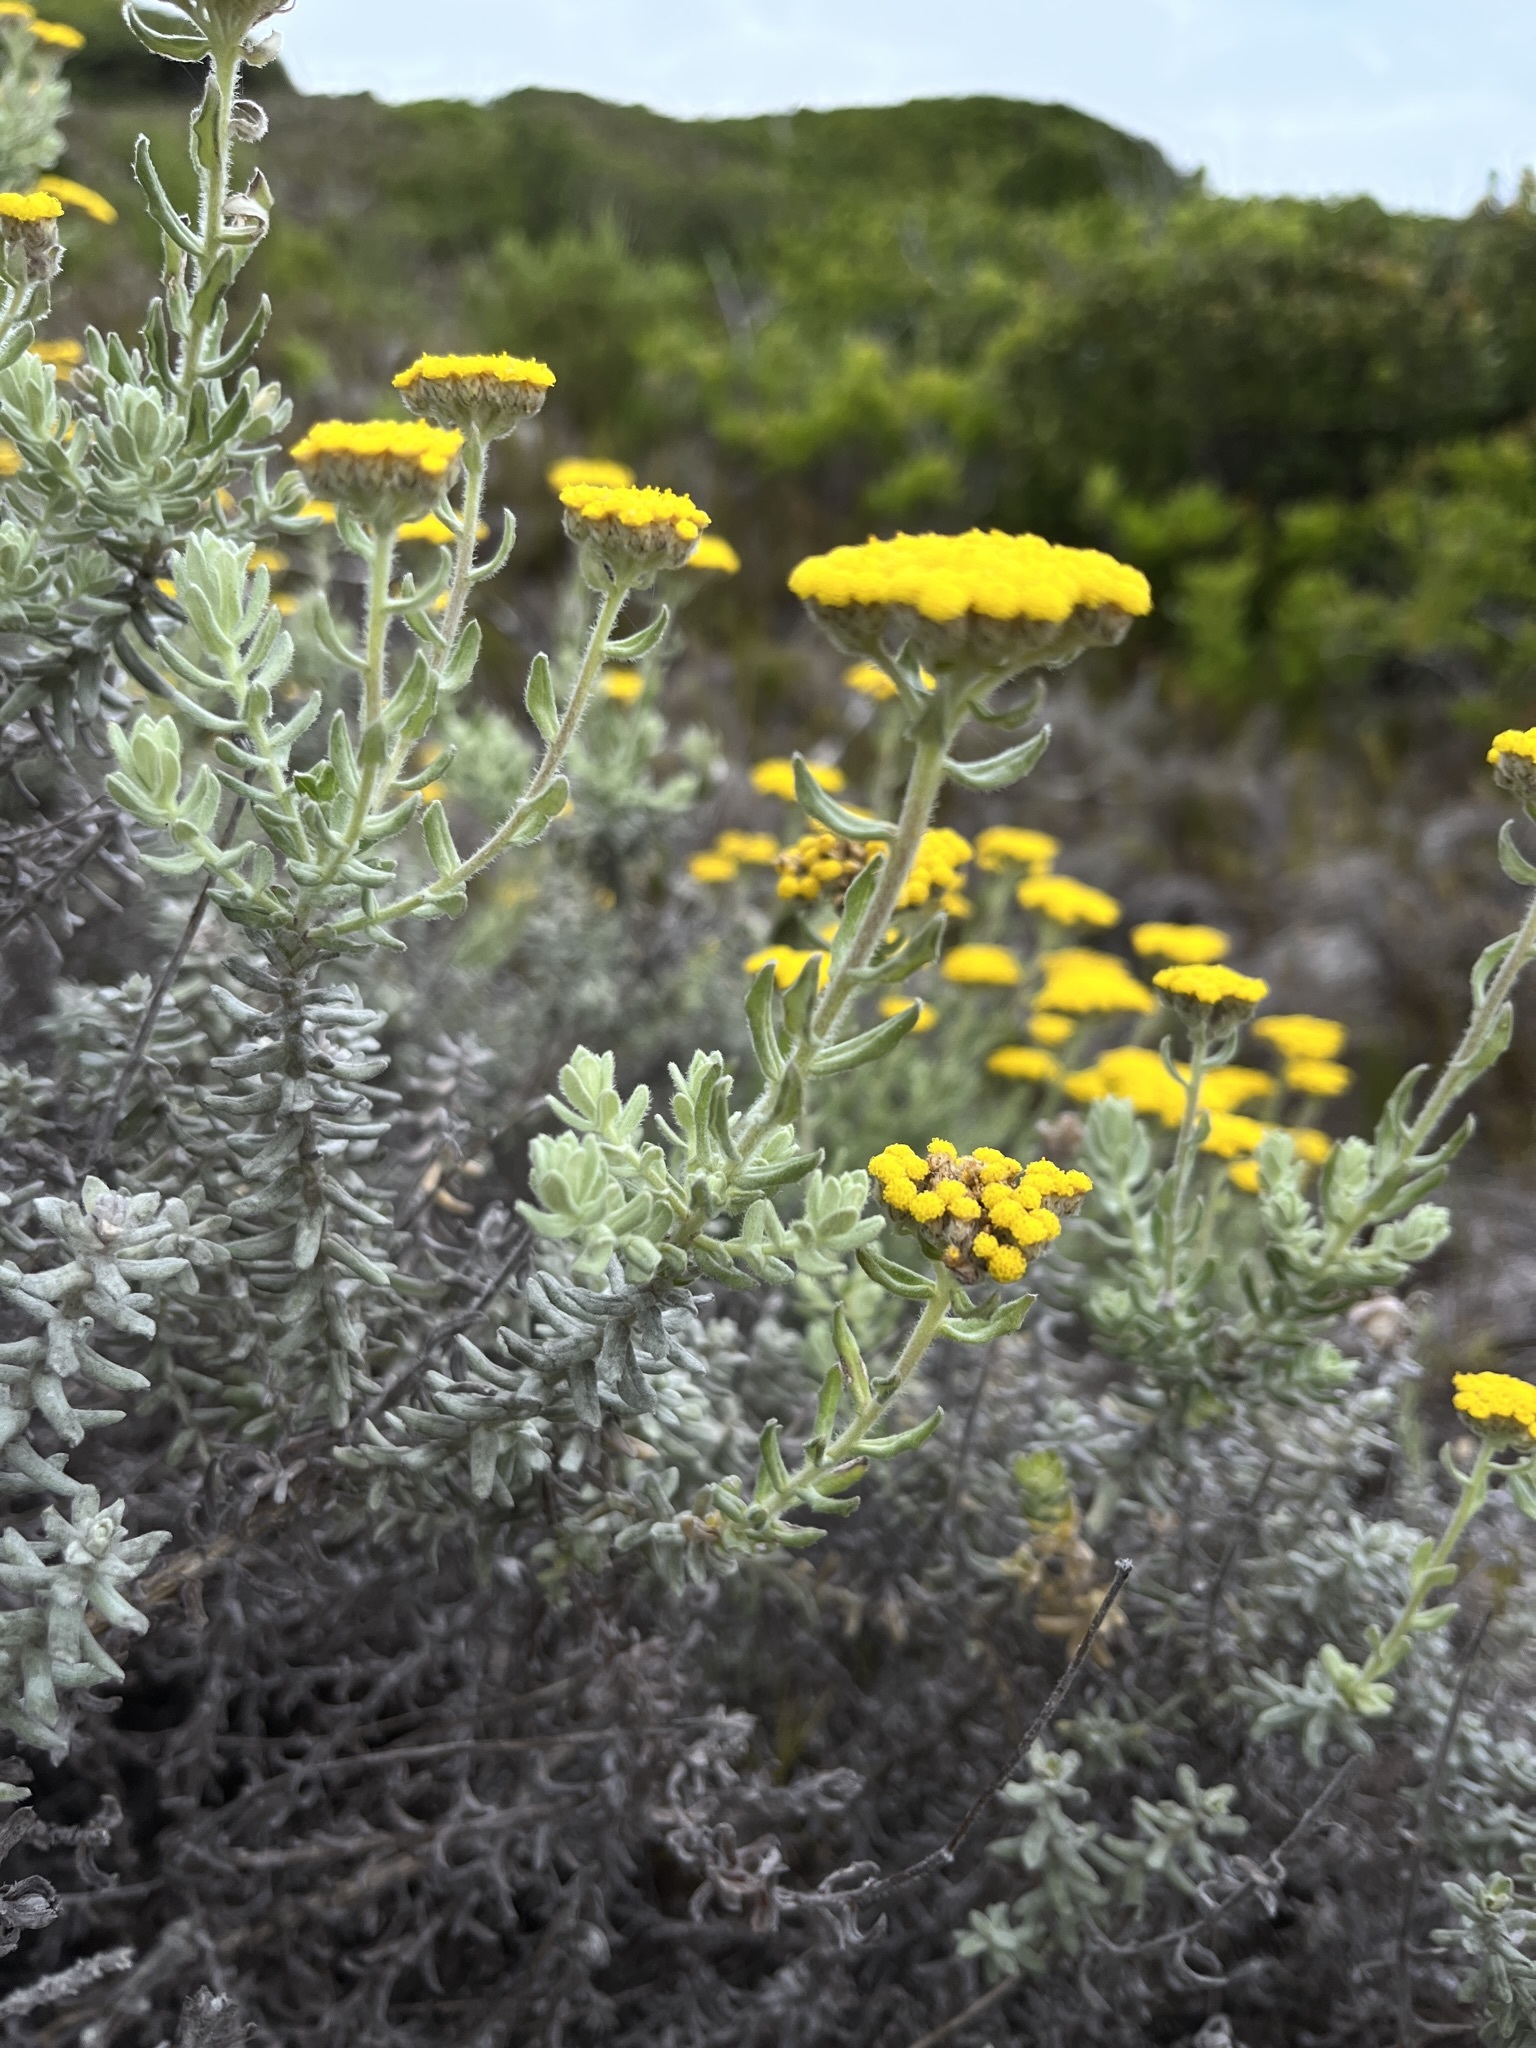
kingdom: Plantae
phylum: Tracheophyta
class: Magnoliopsida
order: Asterales
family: Asteraceae
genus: Helichrysum
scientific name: Helichrysum dasyanthum
